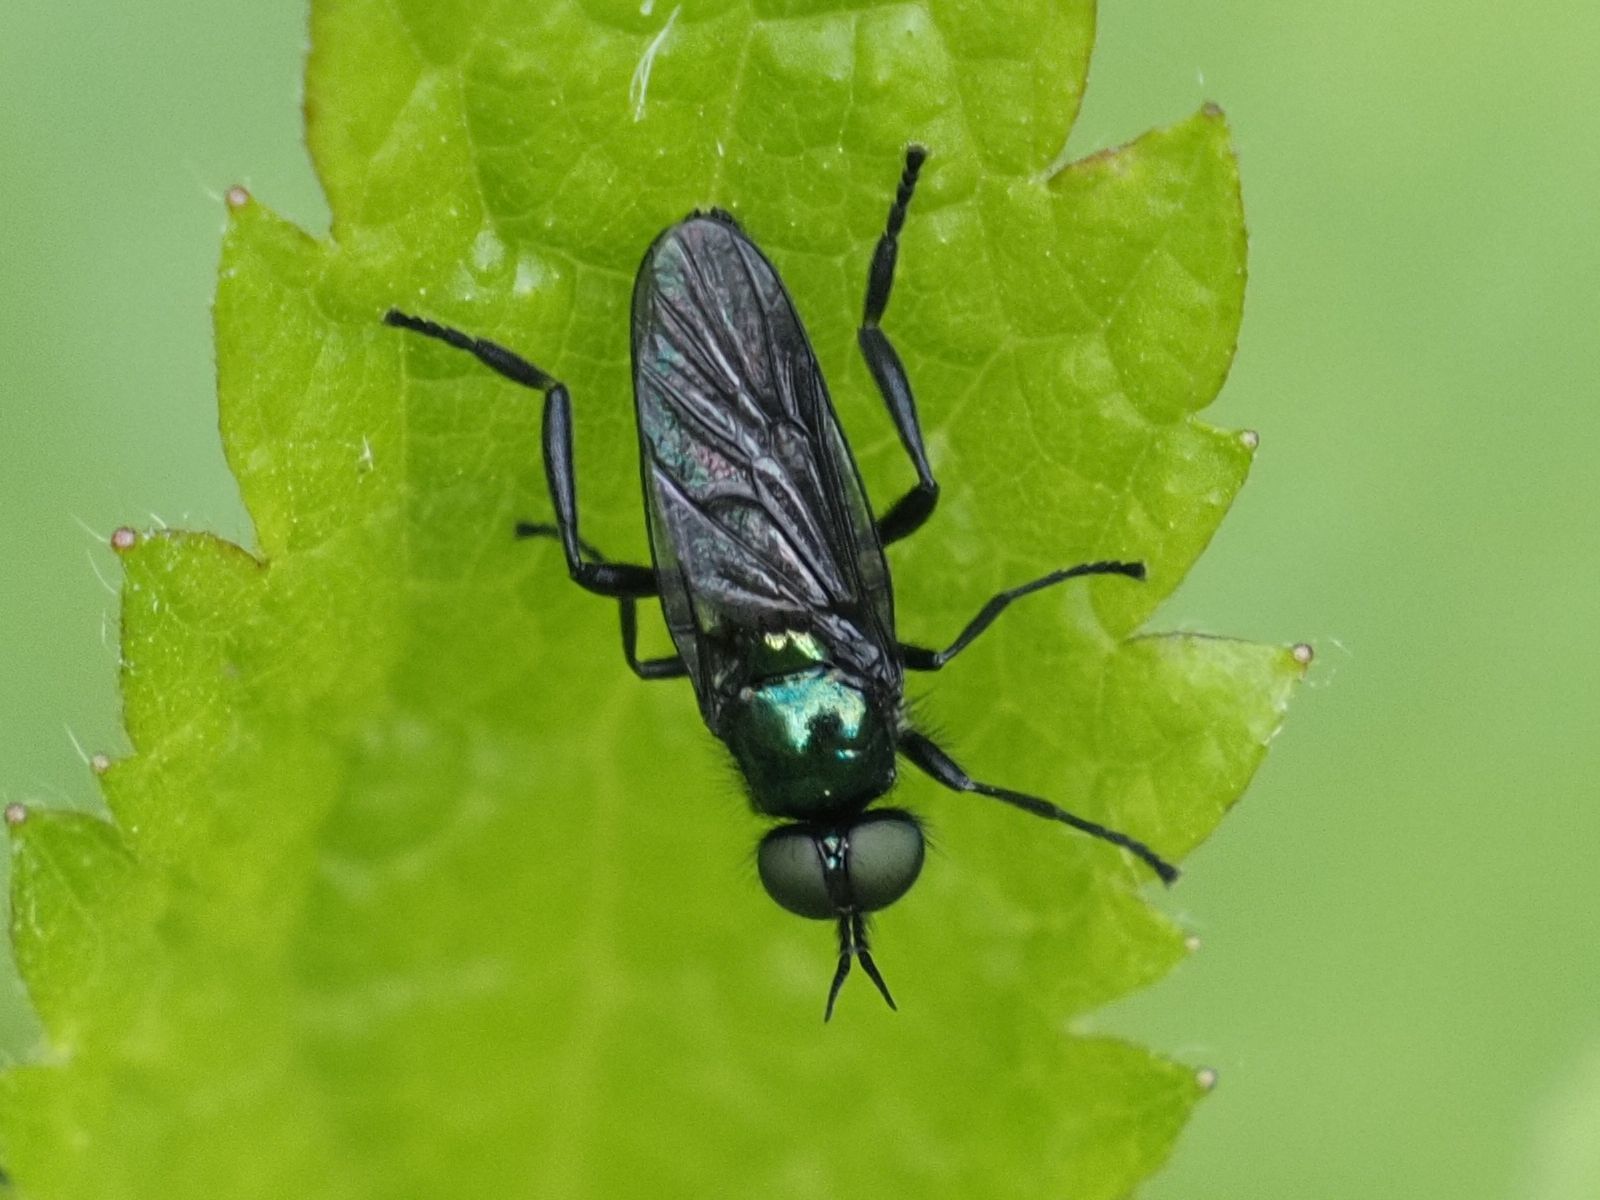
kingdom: Animalia
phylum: Arthropoda
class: Insecta
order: Diptera
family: Stratiomyidae
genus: Actina
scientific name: Actina chalybea
